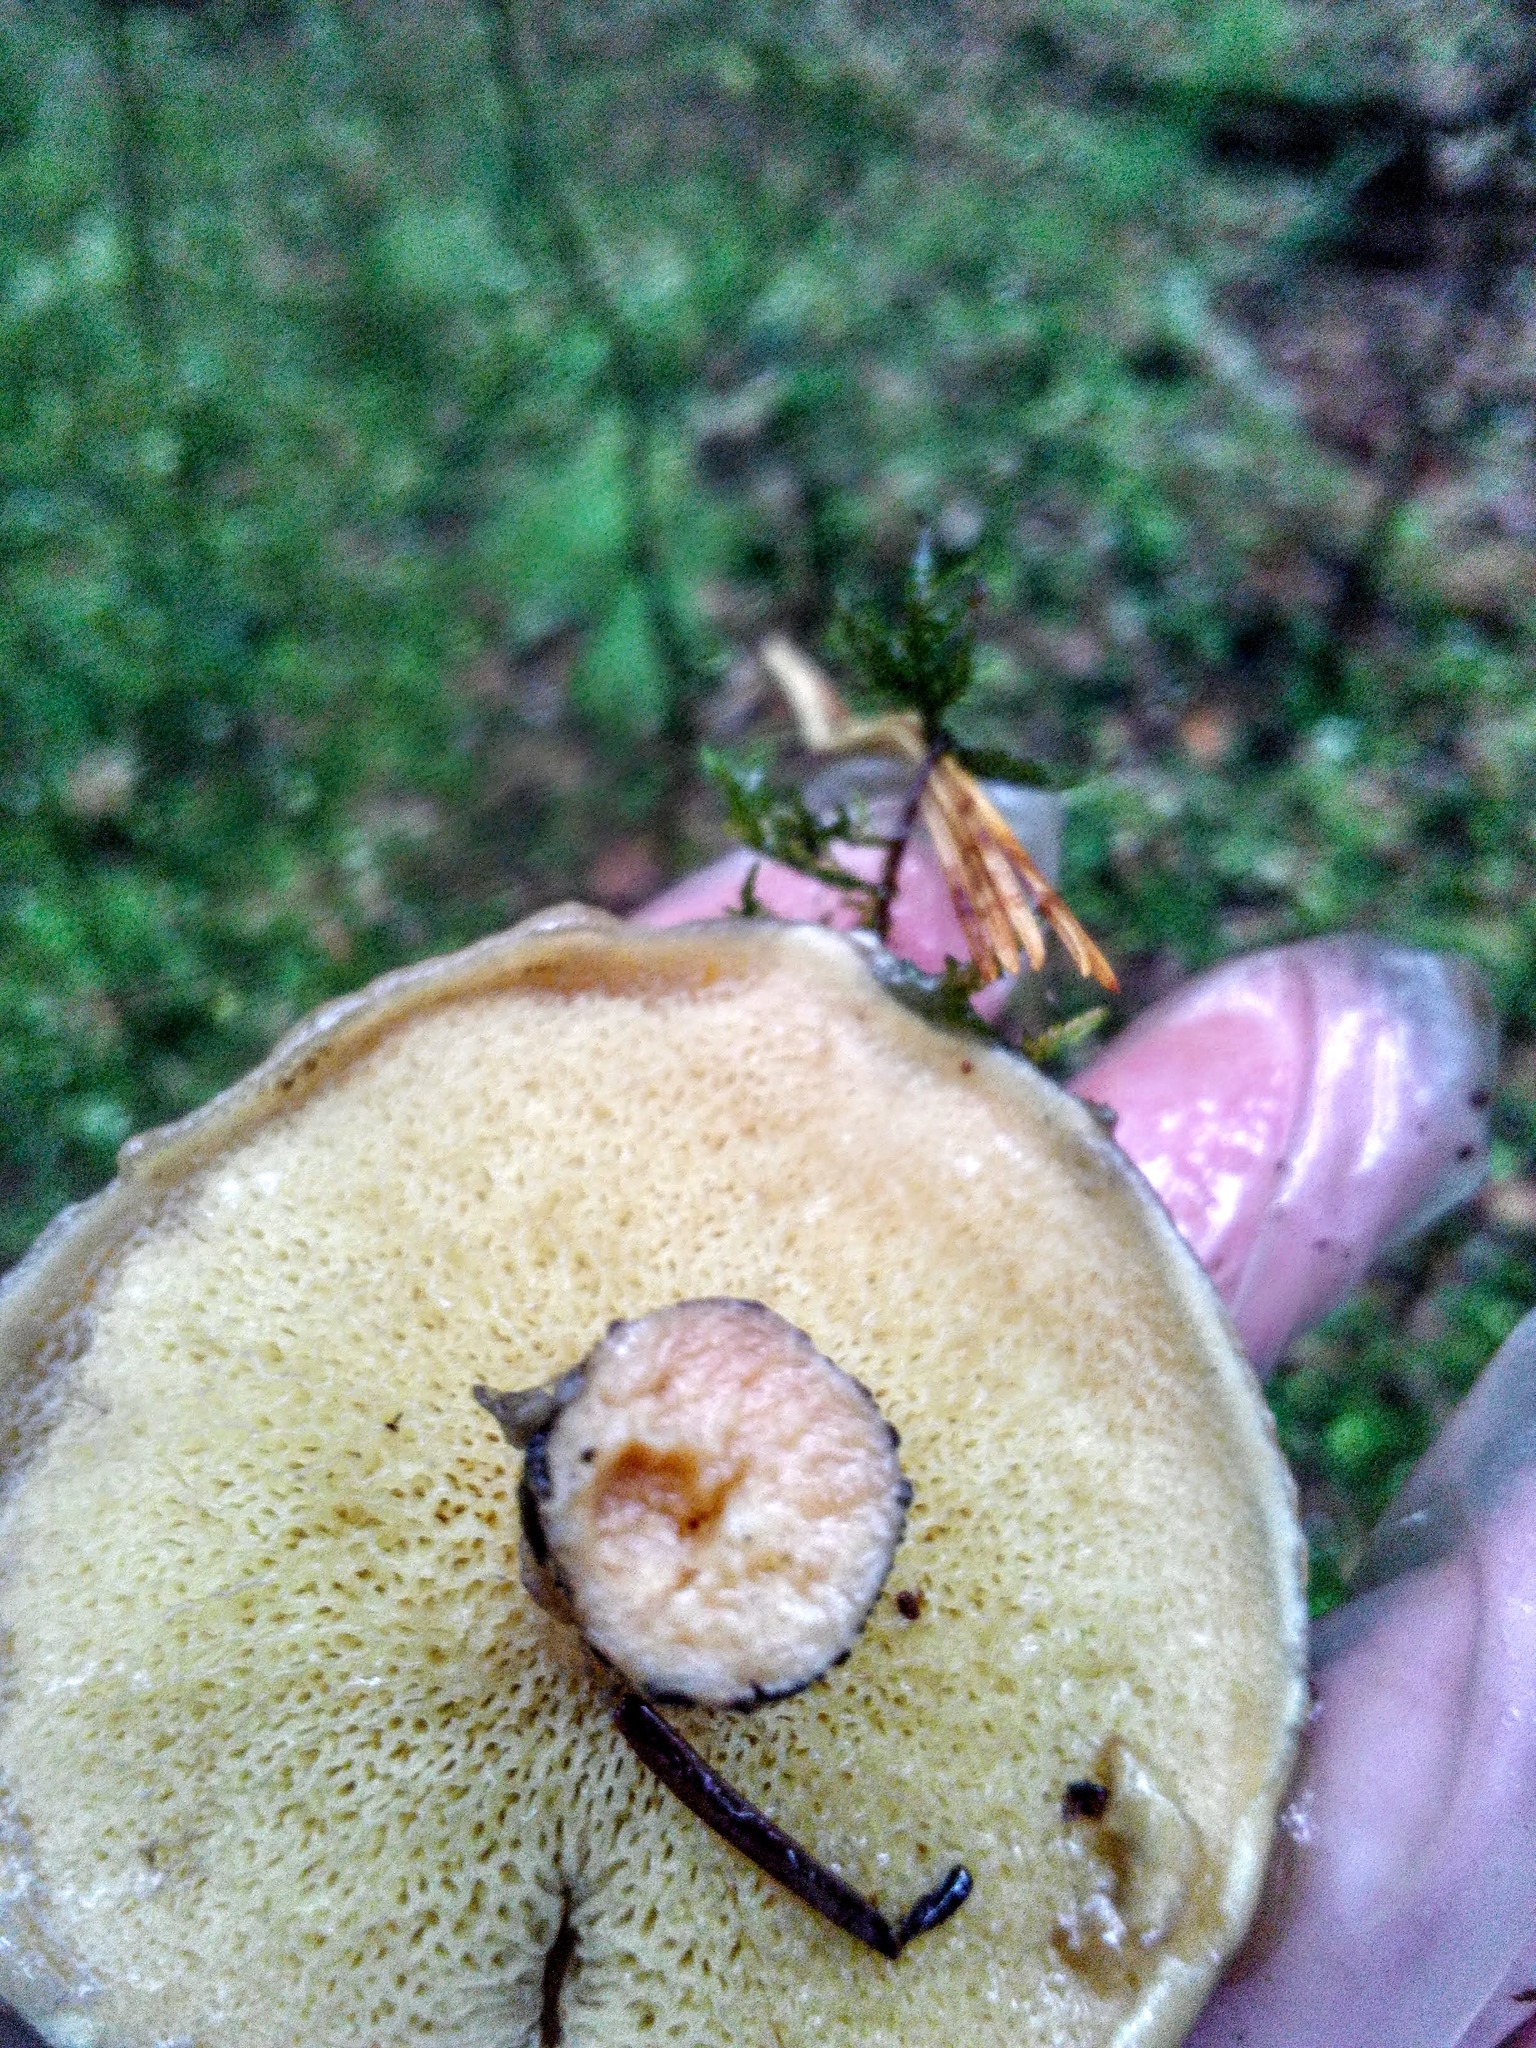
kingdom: Fungi
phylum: Basidiomycota
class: Agaricomycetes
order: Boletales
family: Suillaceae
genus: Suillus
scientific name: Suillus acidus
